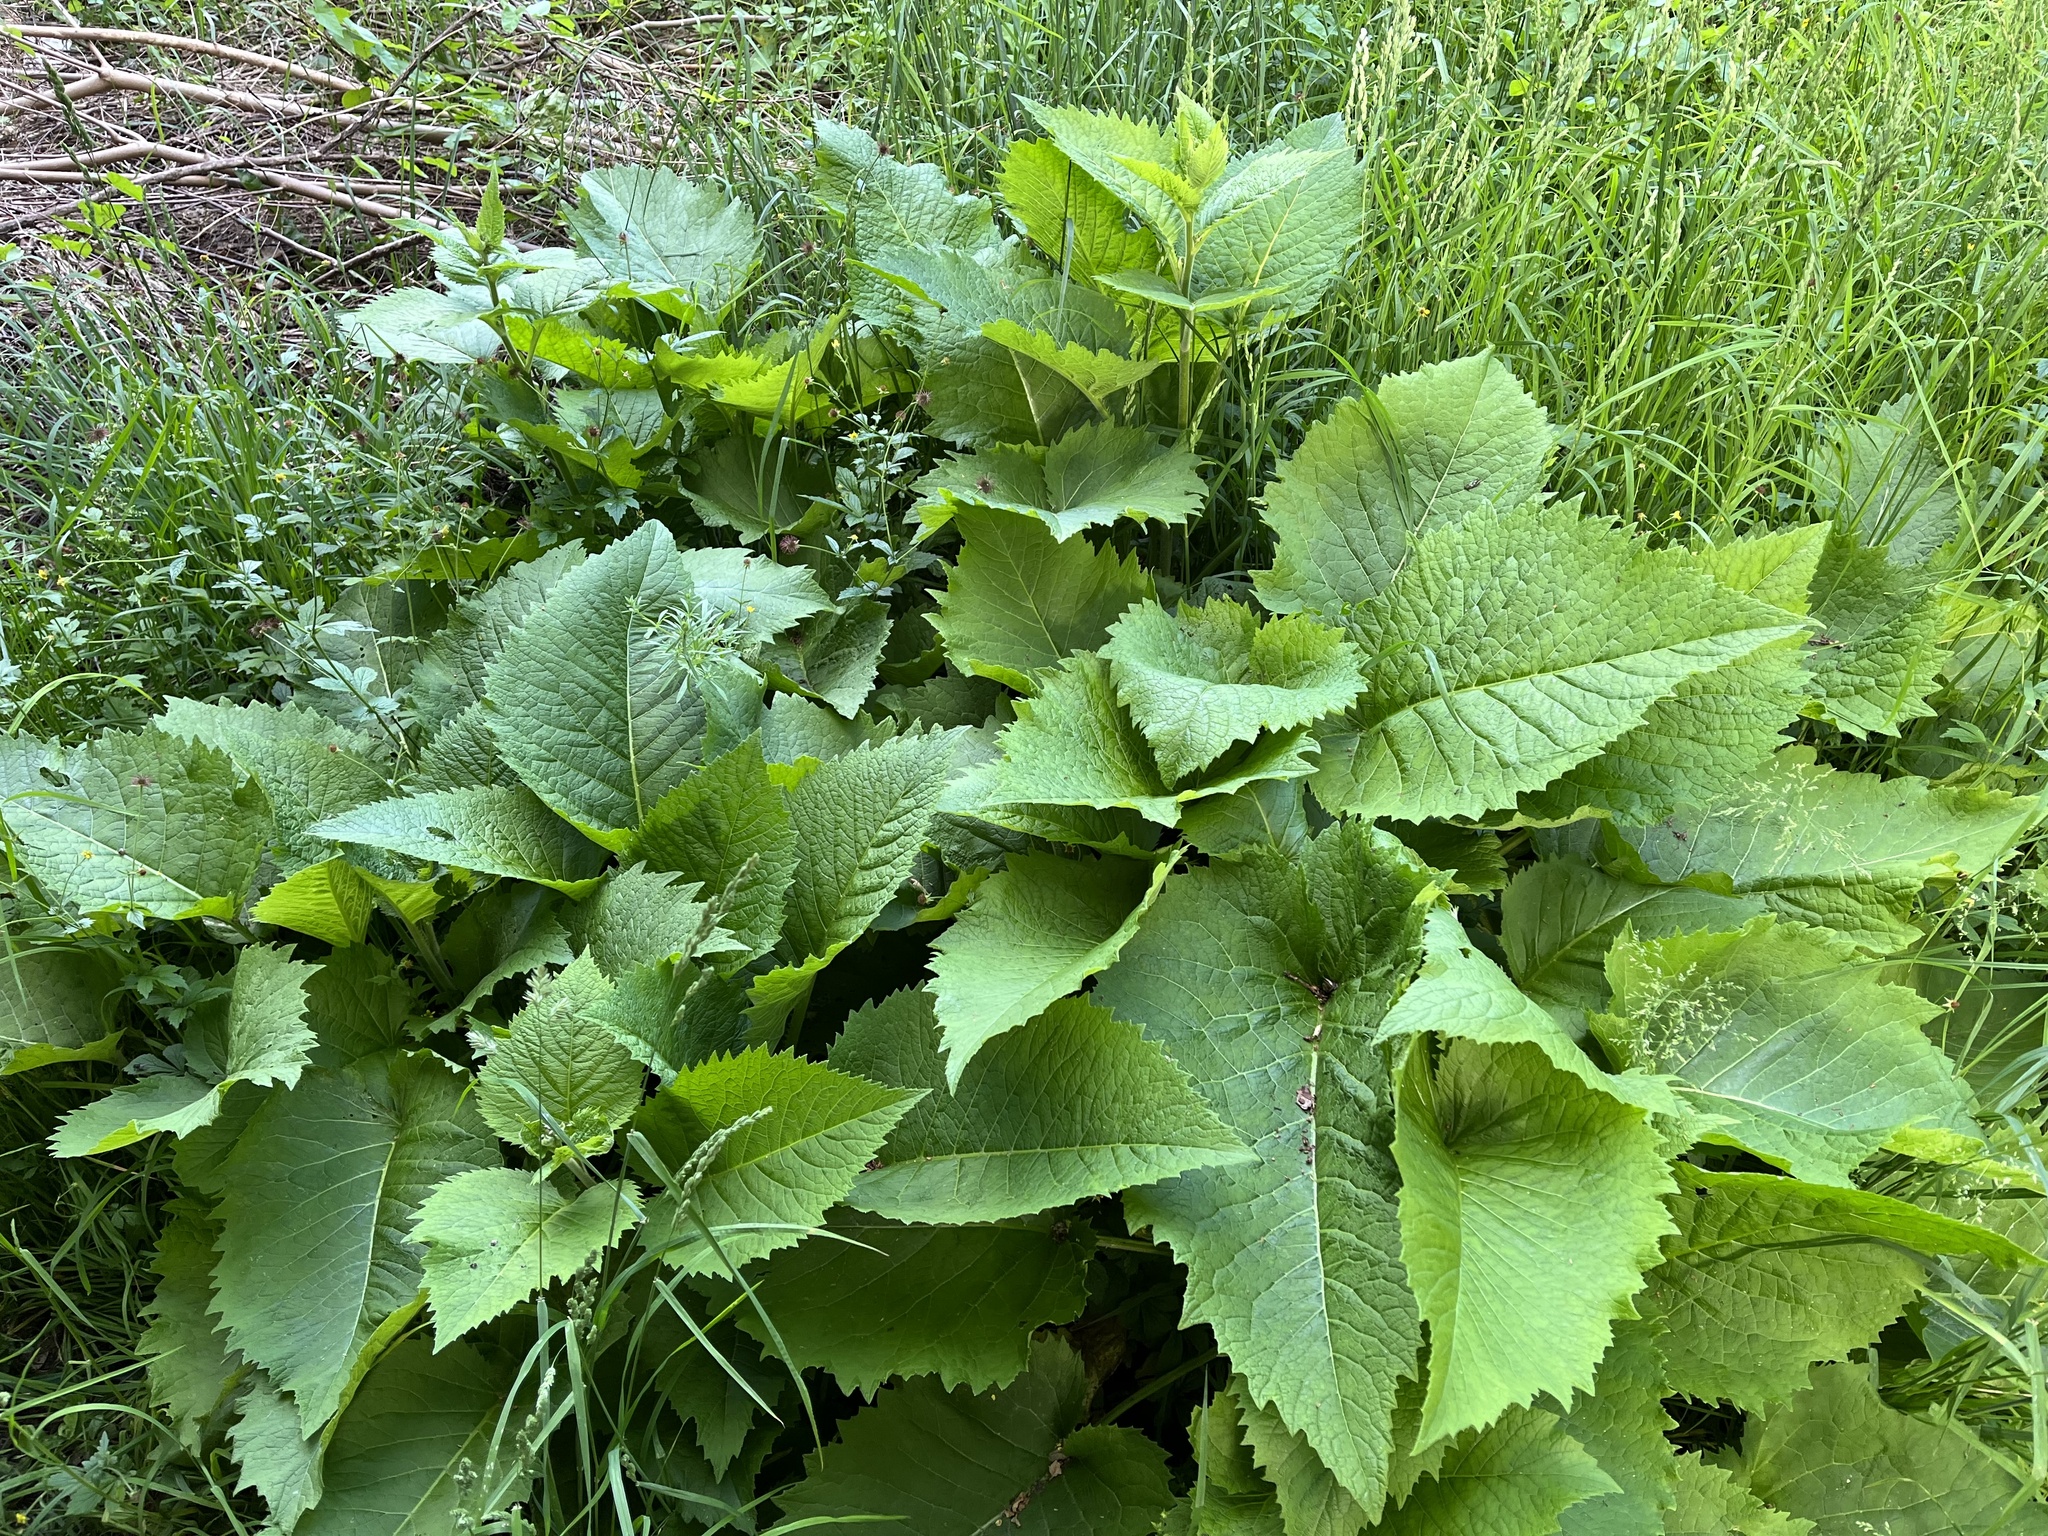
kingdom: Plantae
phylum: Tracheophyta
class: Magnoliopsida
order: Asterales
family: Asteraceae
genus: Telekia
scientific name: Telekia speciosa
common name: Yellow oxeye
